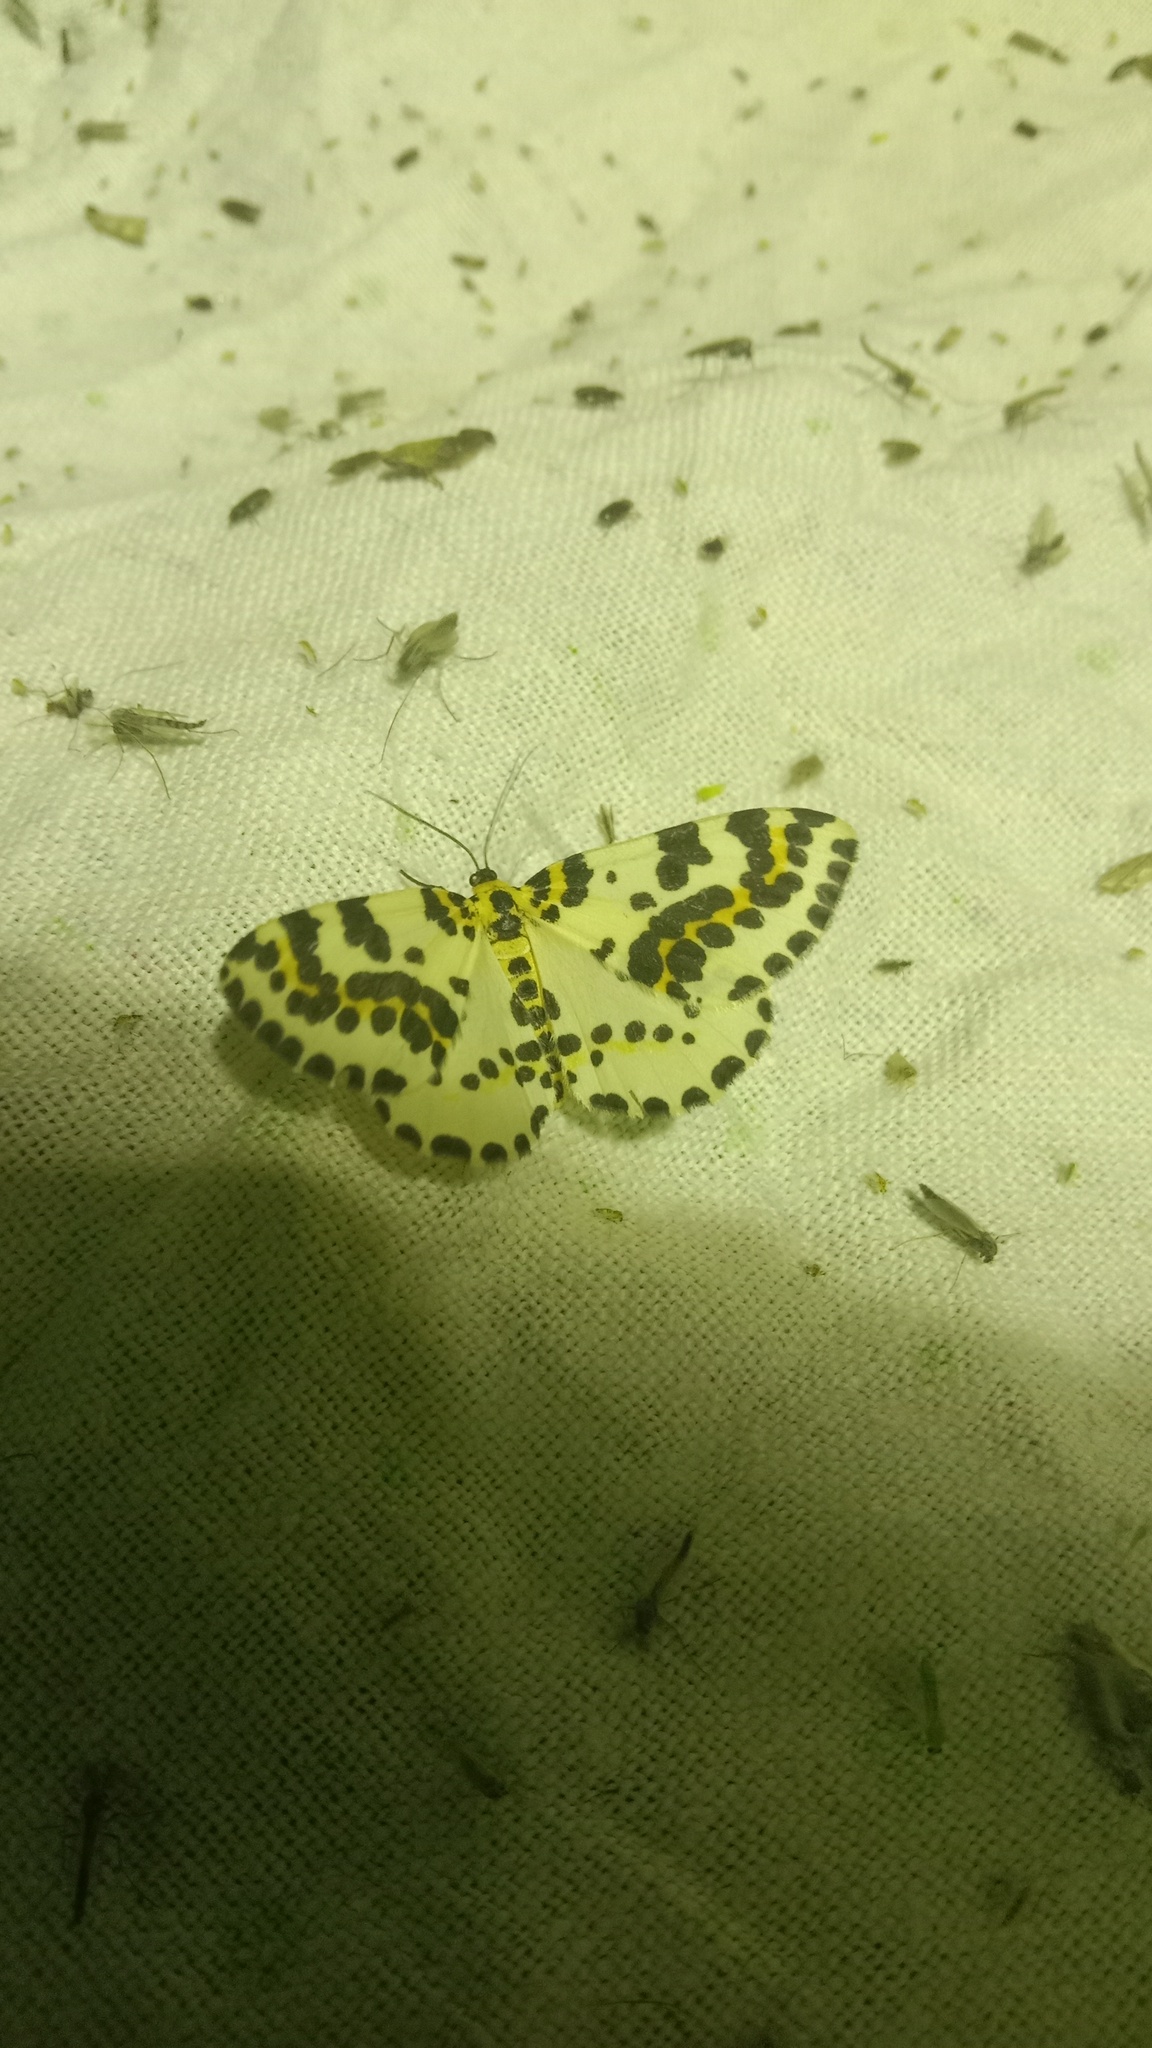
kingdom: Animalia
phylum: Arthropoda
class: Insecta
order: Lepidoptera
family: Geometridae
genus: Abraxas
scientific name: Abraxas grossulariata
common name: Magpie
